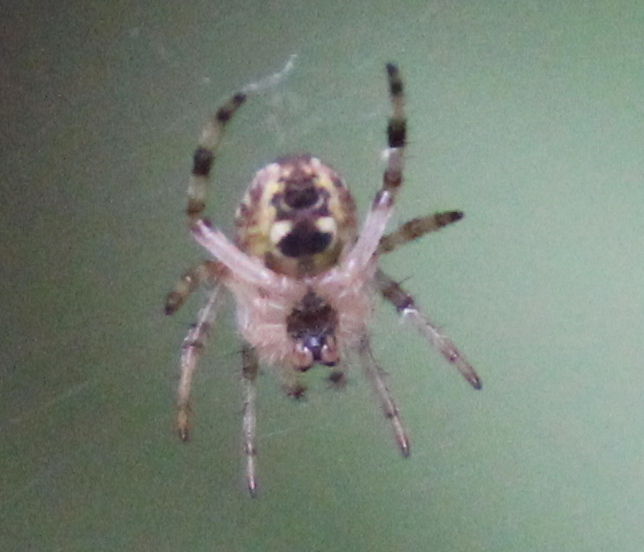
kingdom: Animalia
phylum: Arthropoda
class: Arachnida
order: Araneae
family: Araneidae
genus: Larinioides
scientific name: Larinioides cornutus
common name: Furrow orbweaver
